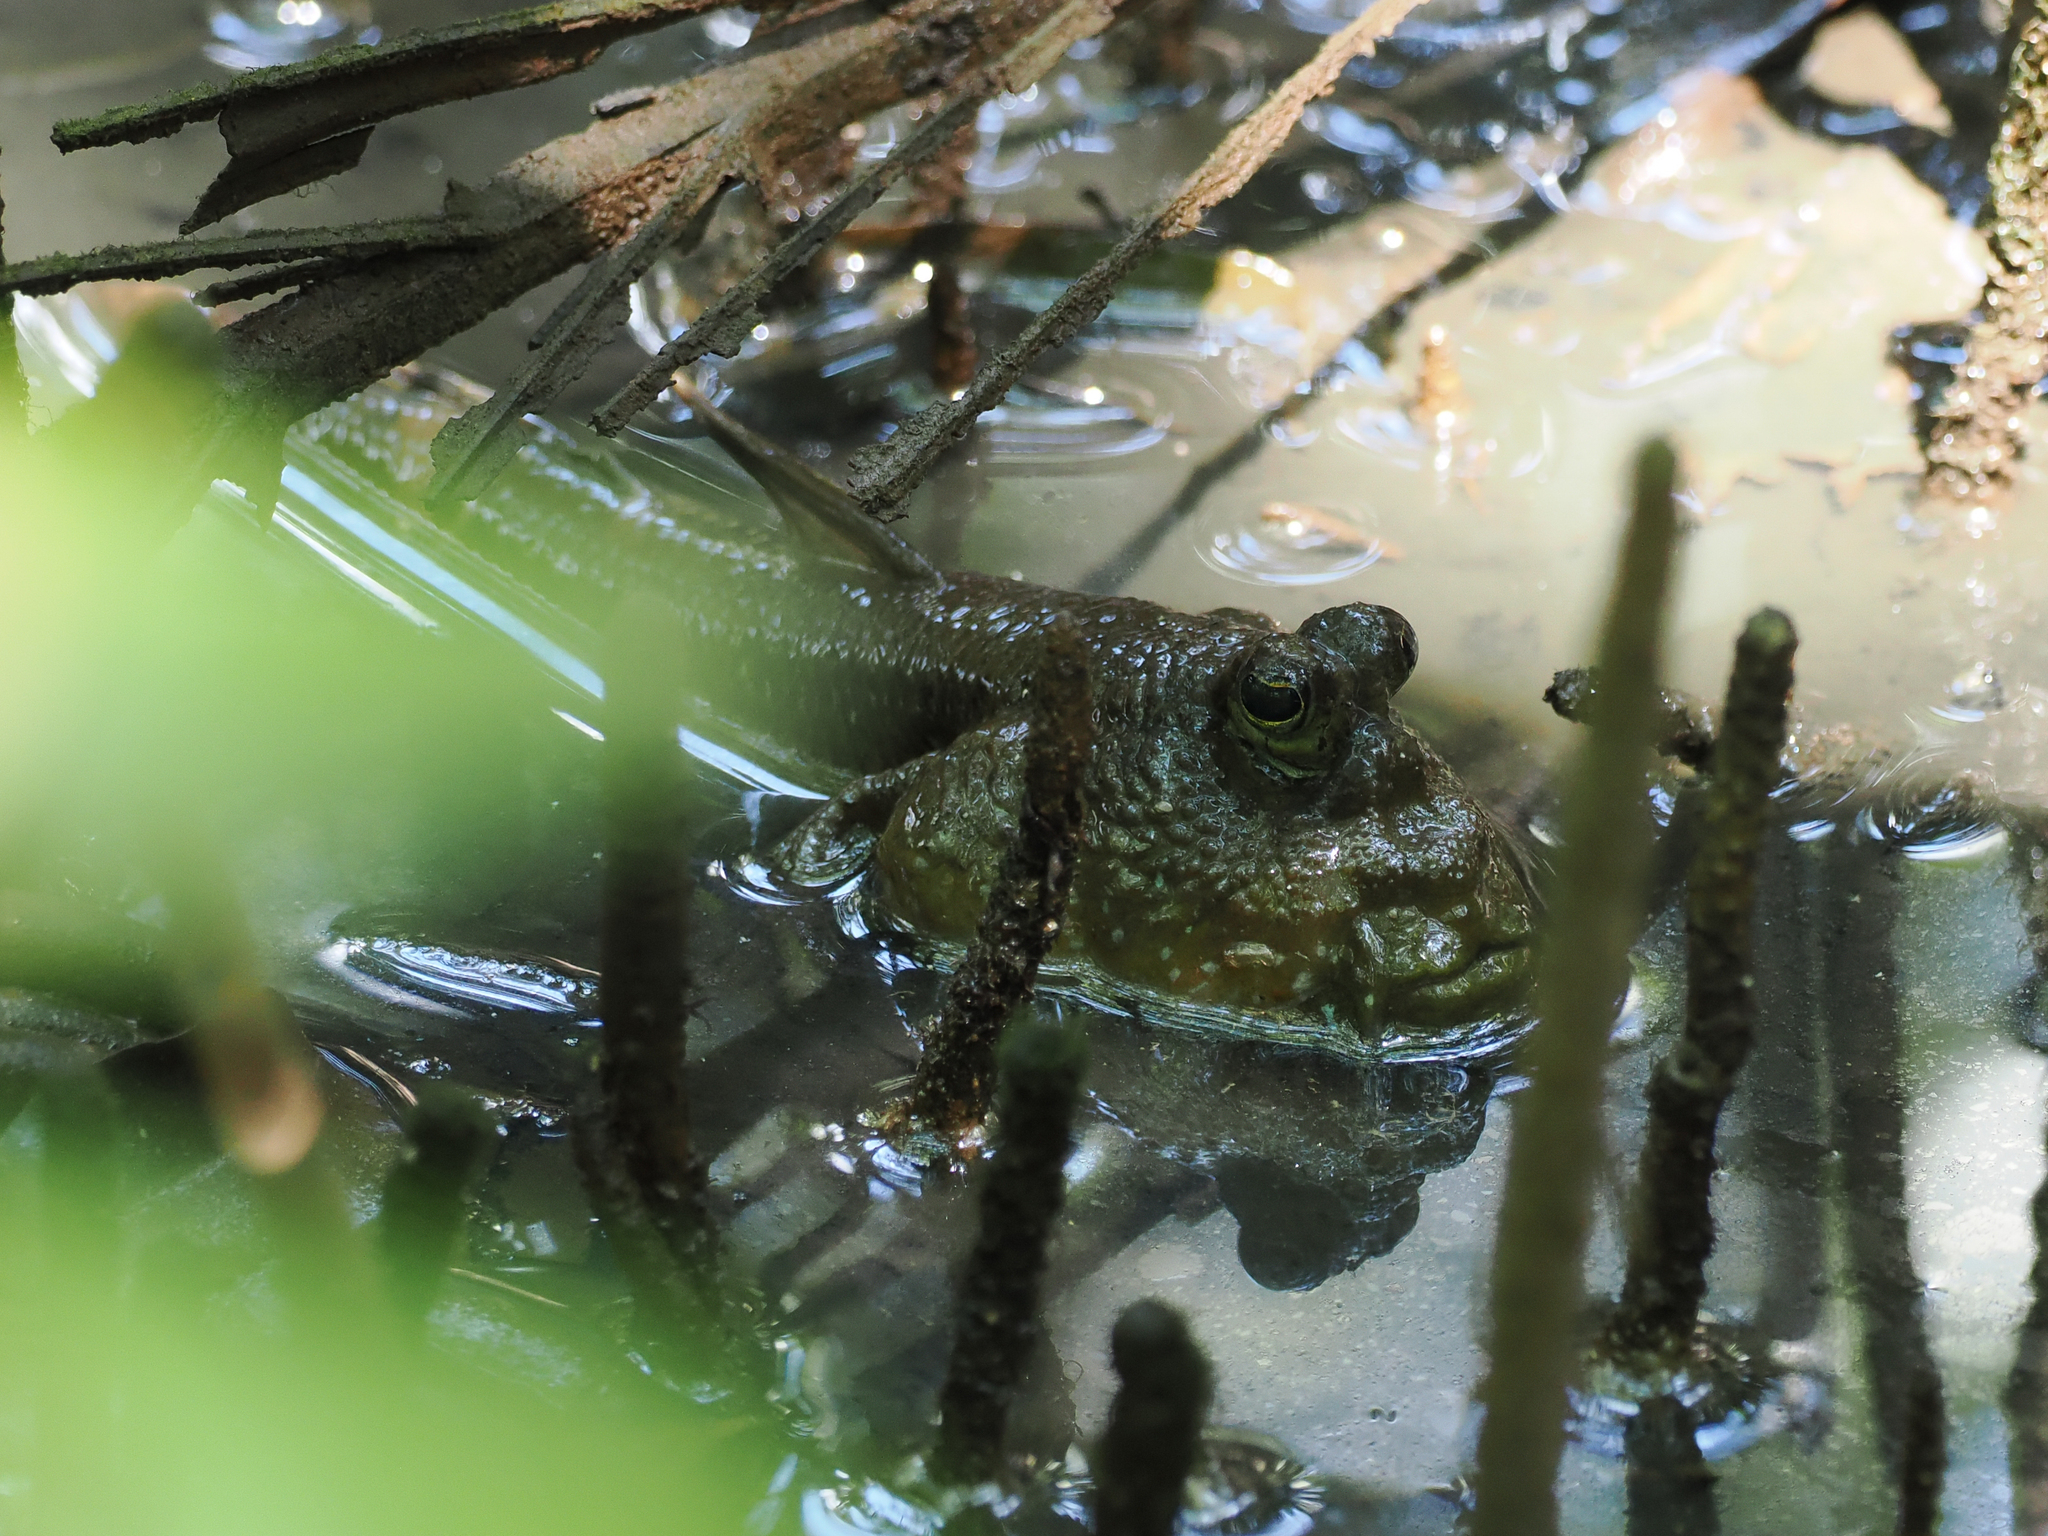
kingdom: Animalia
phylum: Chordata
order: Perciformes
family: Gobiidae
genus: Periophthalmodon
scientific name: Periophthalmodon schlosseri
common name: Giant mudskipper
